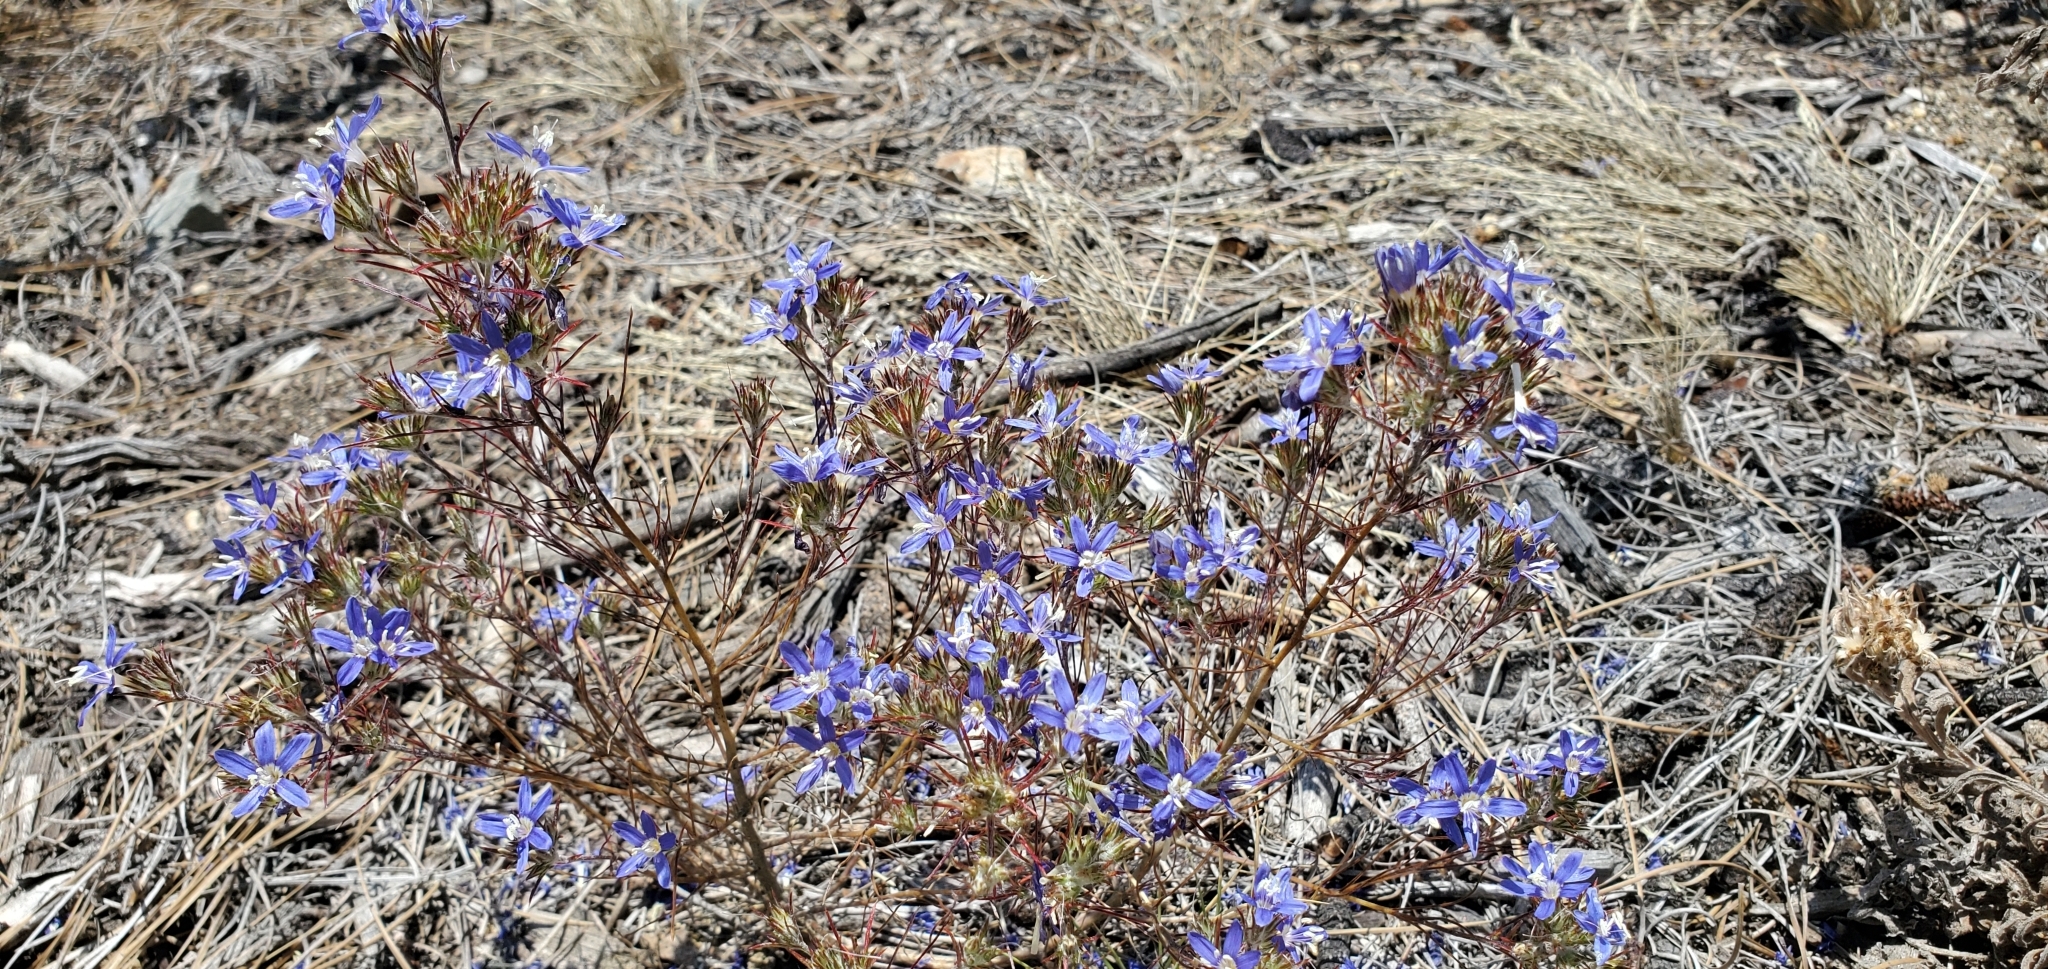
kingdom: Plantae
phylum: Tracheophyta
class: Magnoliopsida
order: Ericales
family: Polemoniaceae
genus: Eriastrum
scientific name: Eriastrum sapphirinum
